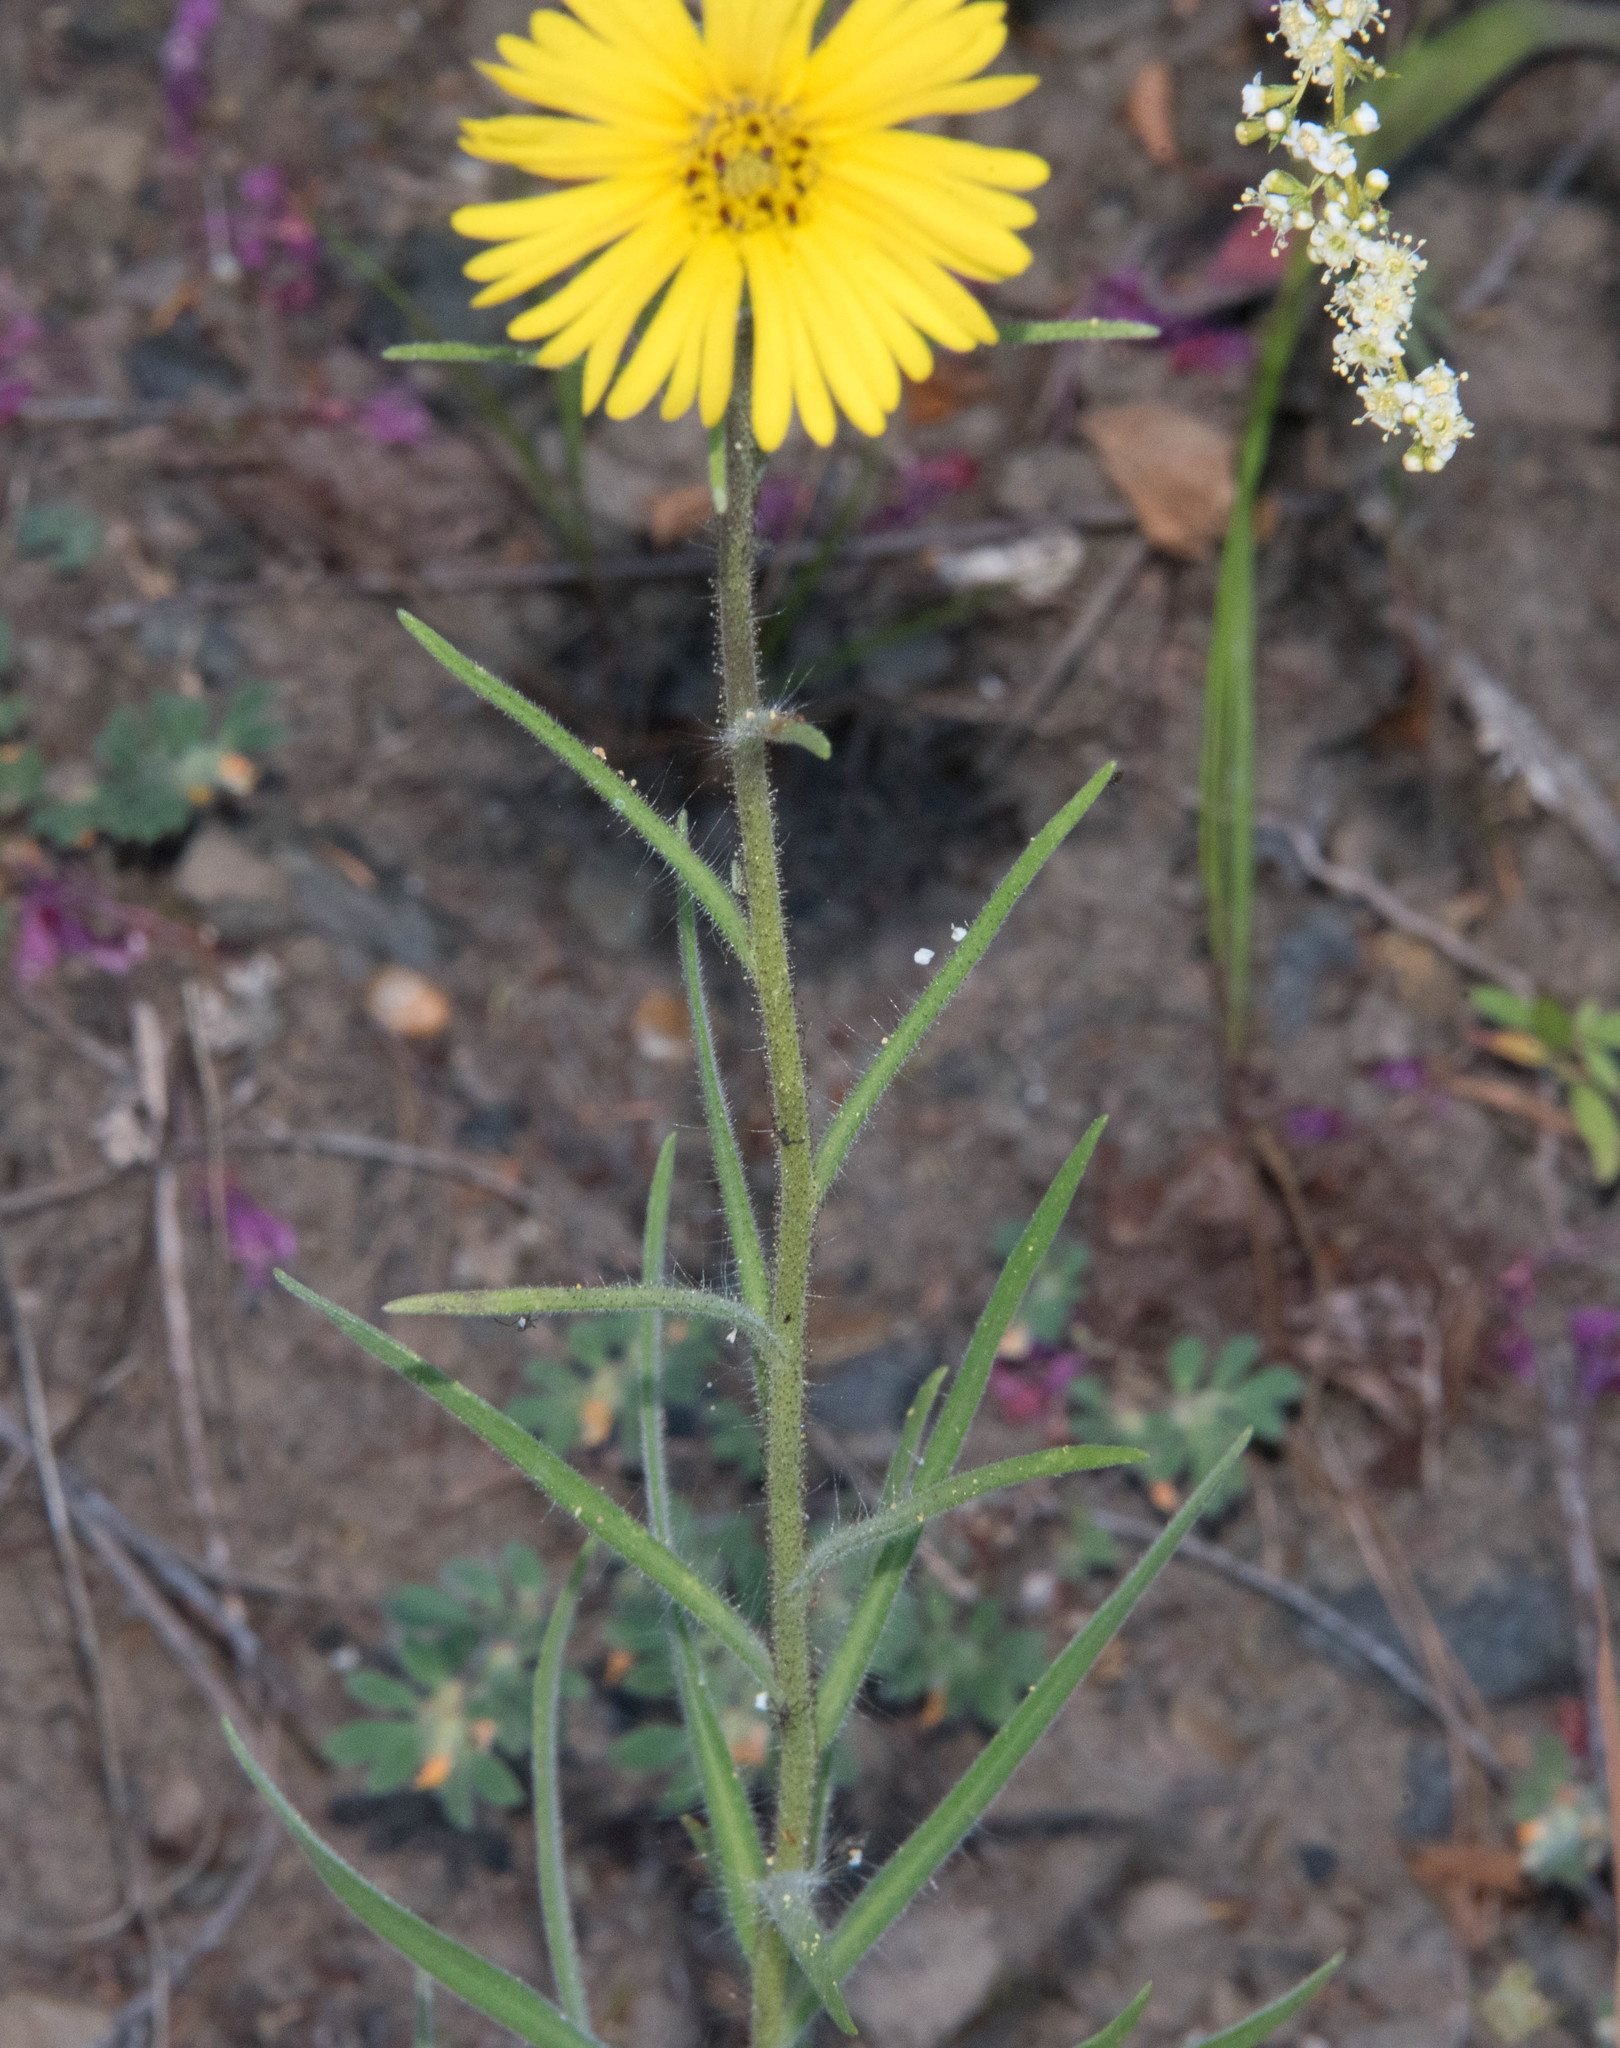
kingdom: Plantae
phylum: Tracheophyta
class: Magnoliopsida
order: Asterales
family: Asteraceae
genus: Madia
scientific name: Madia elegans
